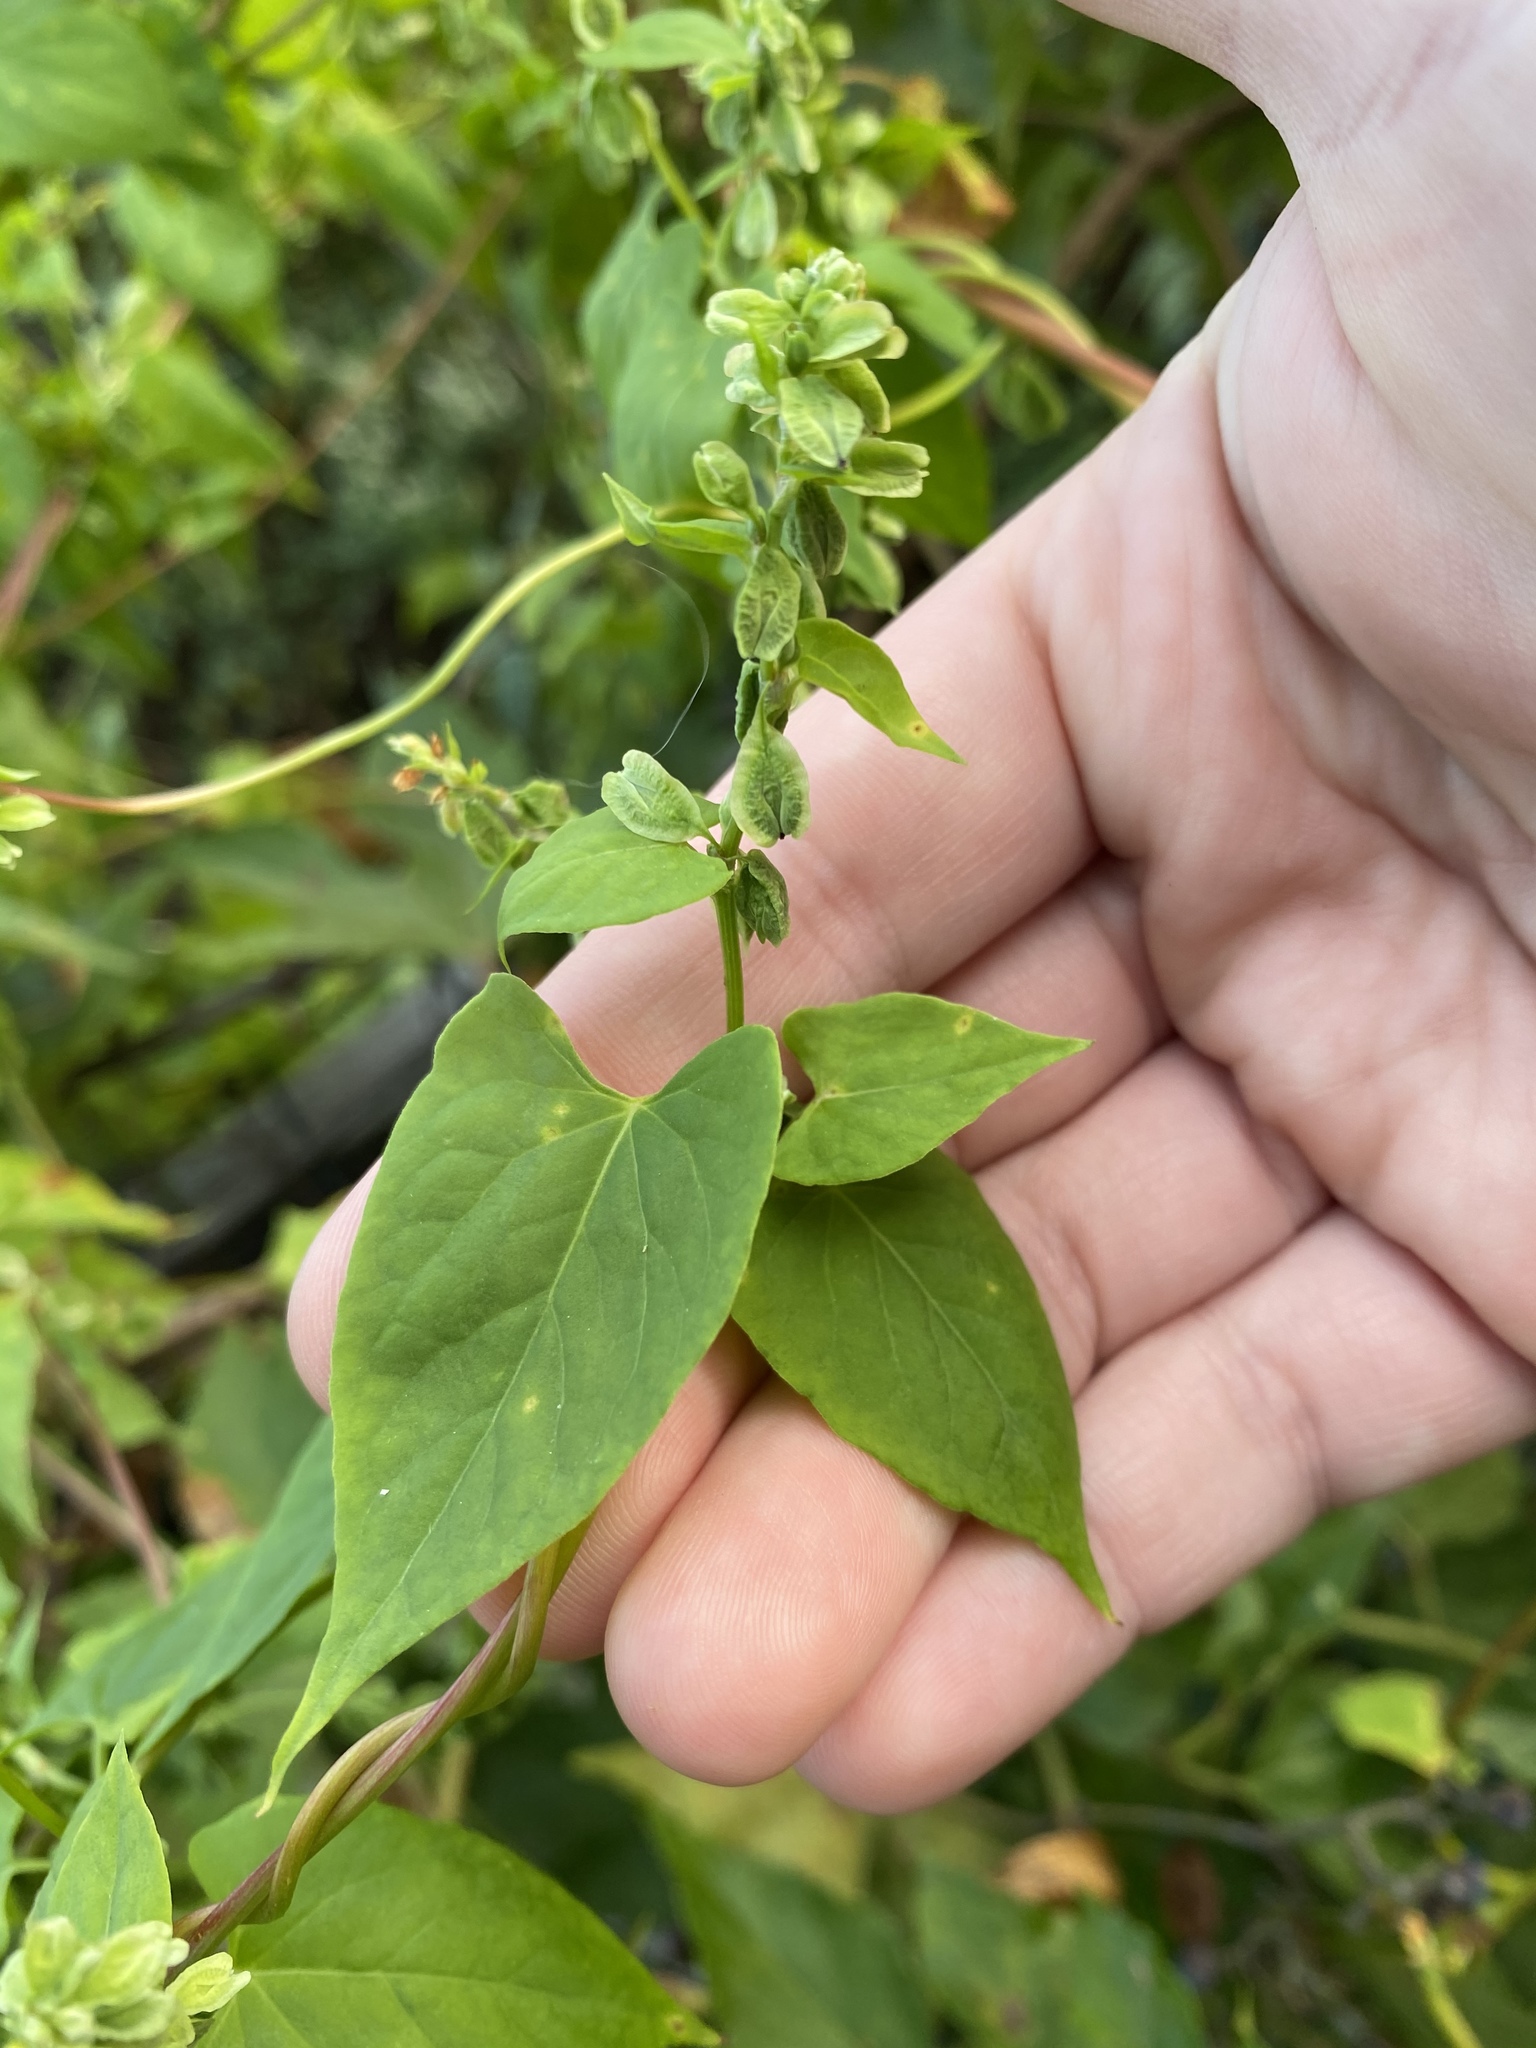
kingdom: Plantae
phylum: Tracheophyta
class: Magnoliopsida
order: Caryophyllales
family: Polygonaceae
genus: Fallopia
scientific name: Fallopia scandens
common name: Climbing false buckwheat
